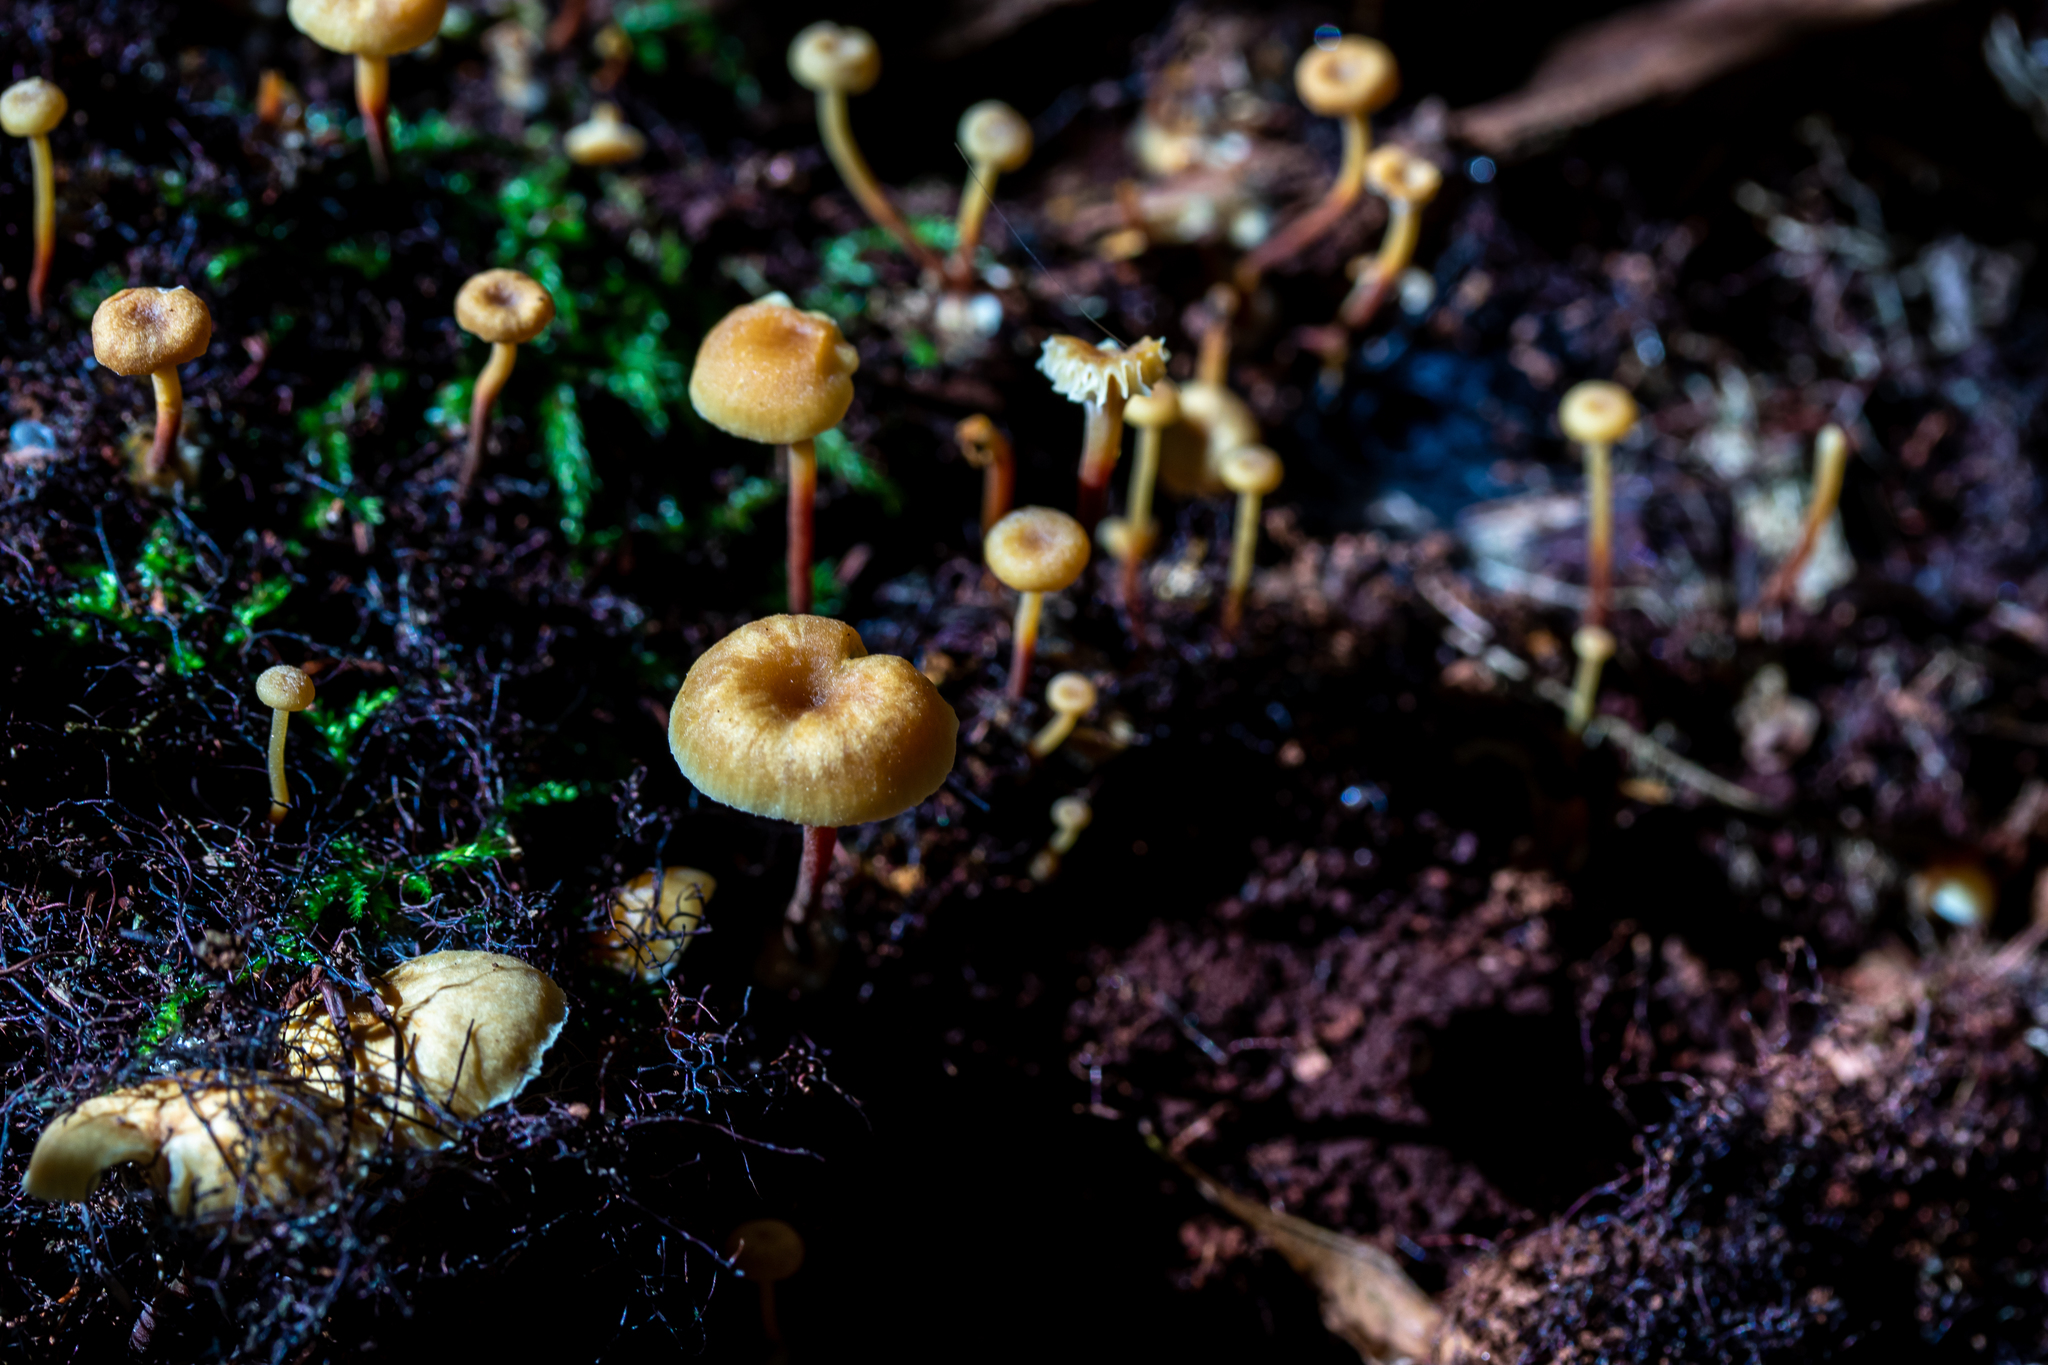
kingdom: Fungi
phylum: Basidiomycota
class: Agaricomycetes
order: Agaricales
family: Mycenaceae
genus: Xeromphalina
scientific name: Xeromphalina campanella
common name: Pinewood gingertail
